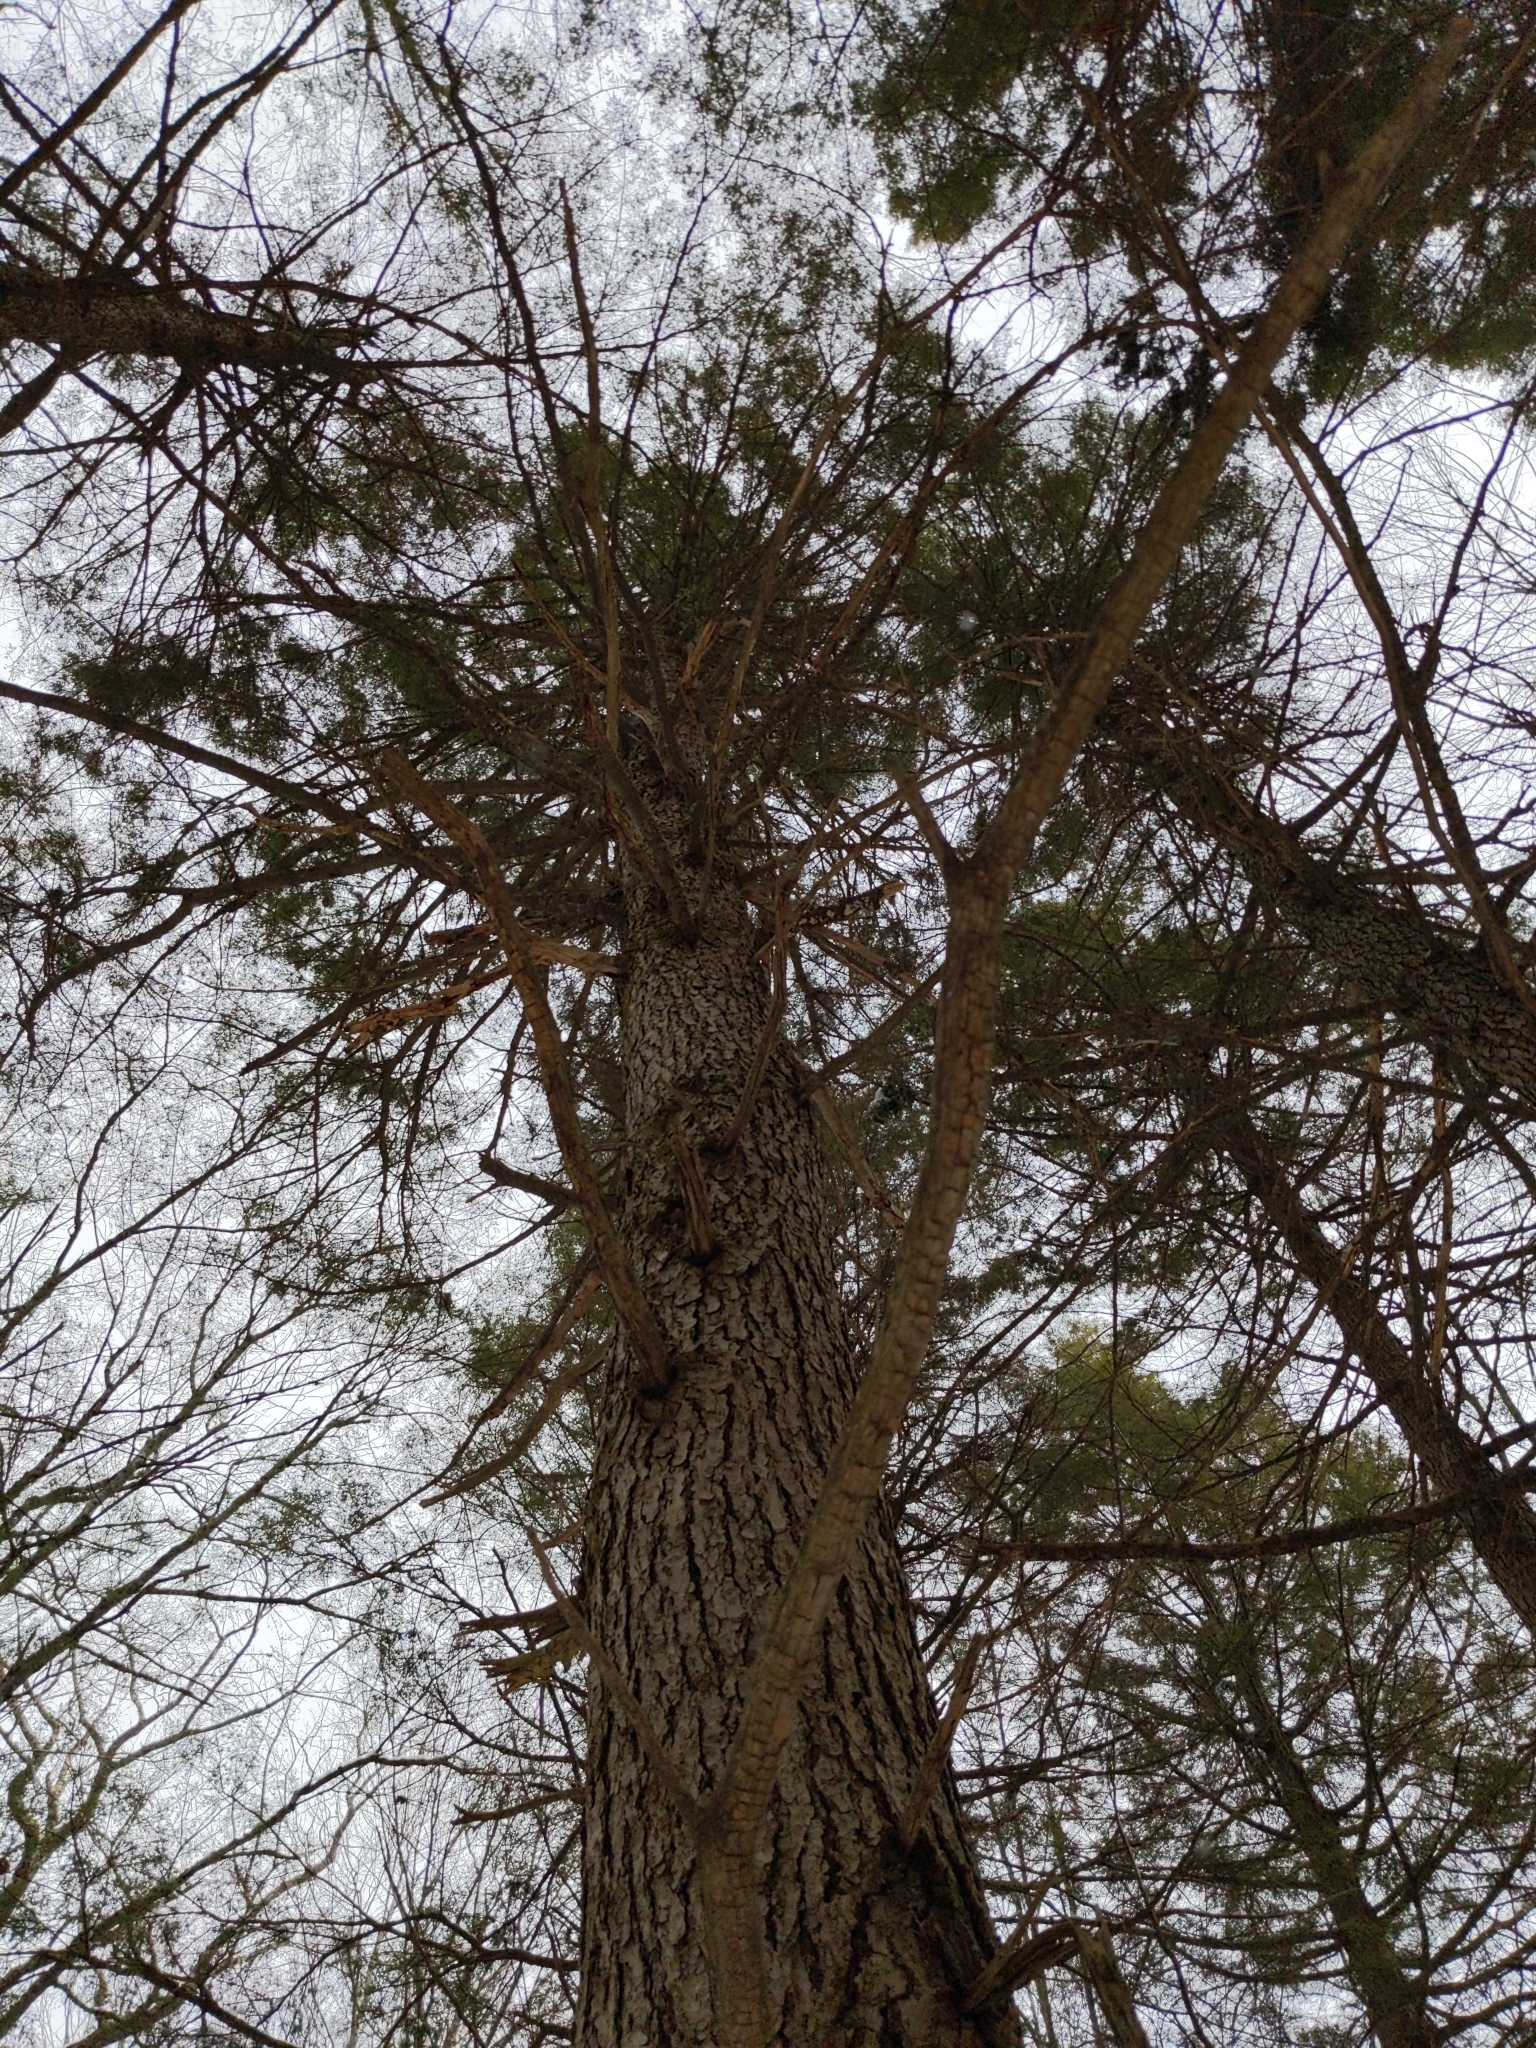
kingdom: Plantae
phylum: Tracheophyta
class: Pinopsida
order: Pinales
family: Pinaceae
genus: Tsuga
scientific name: Tsuga canadensis
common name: Eastern hemlock
